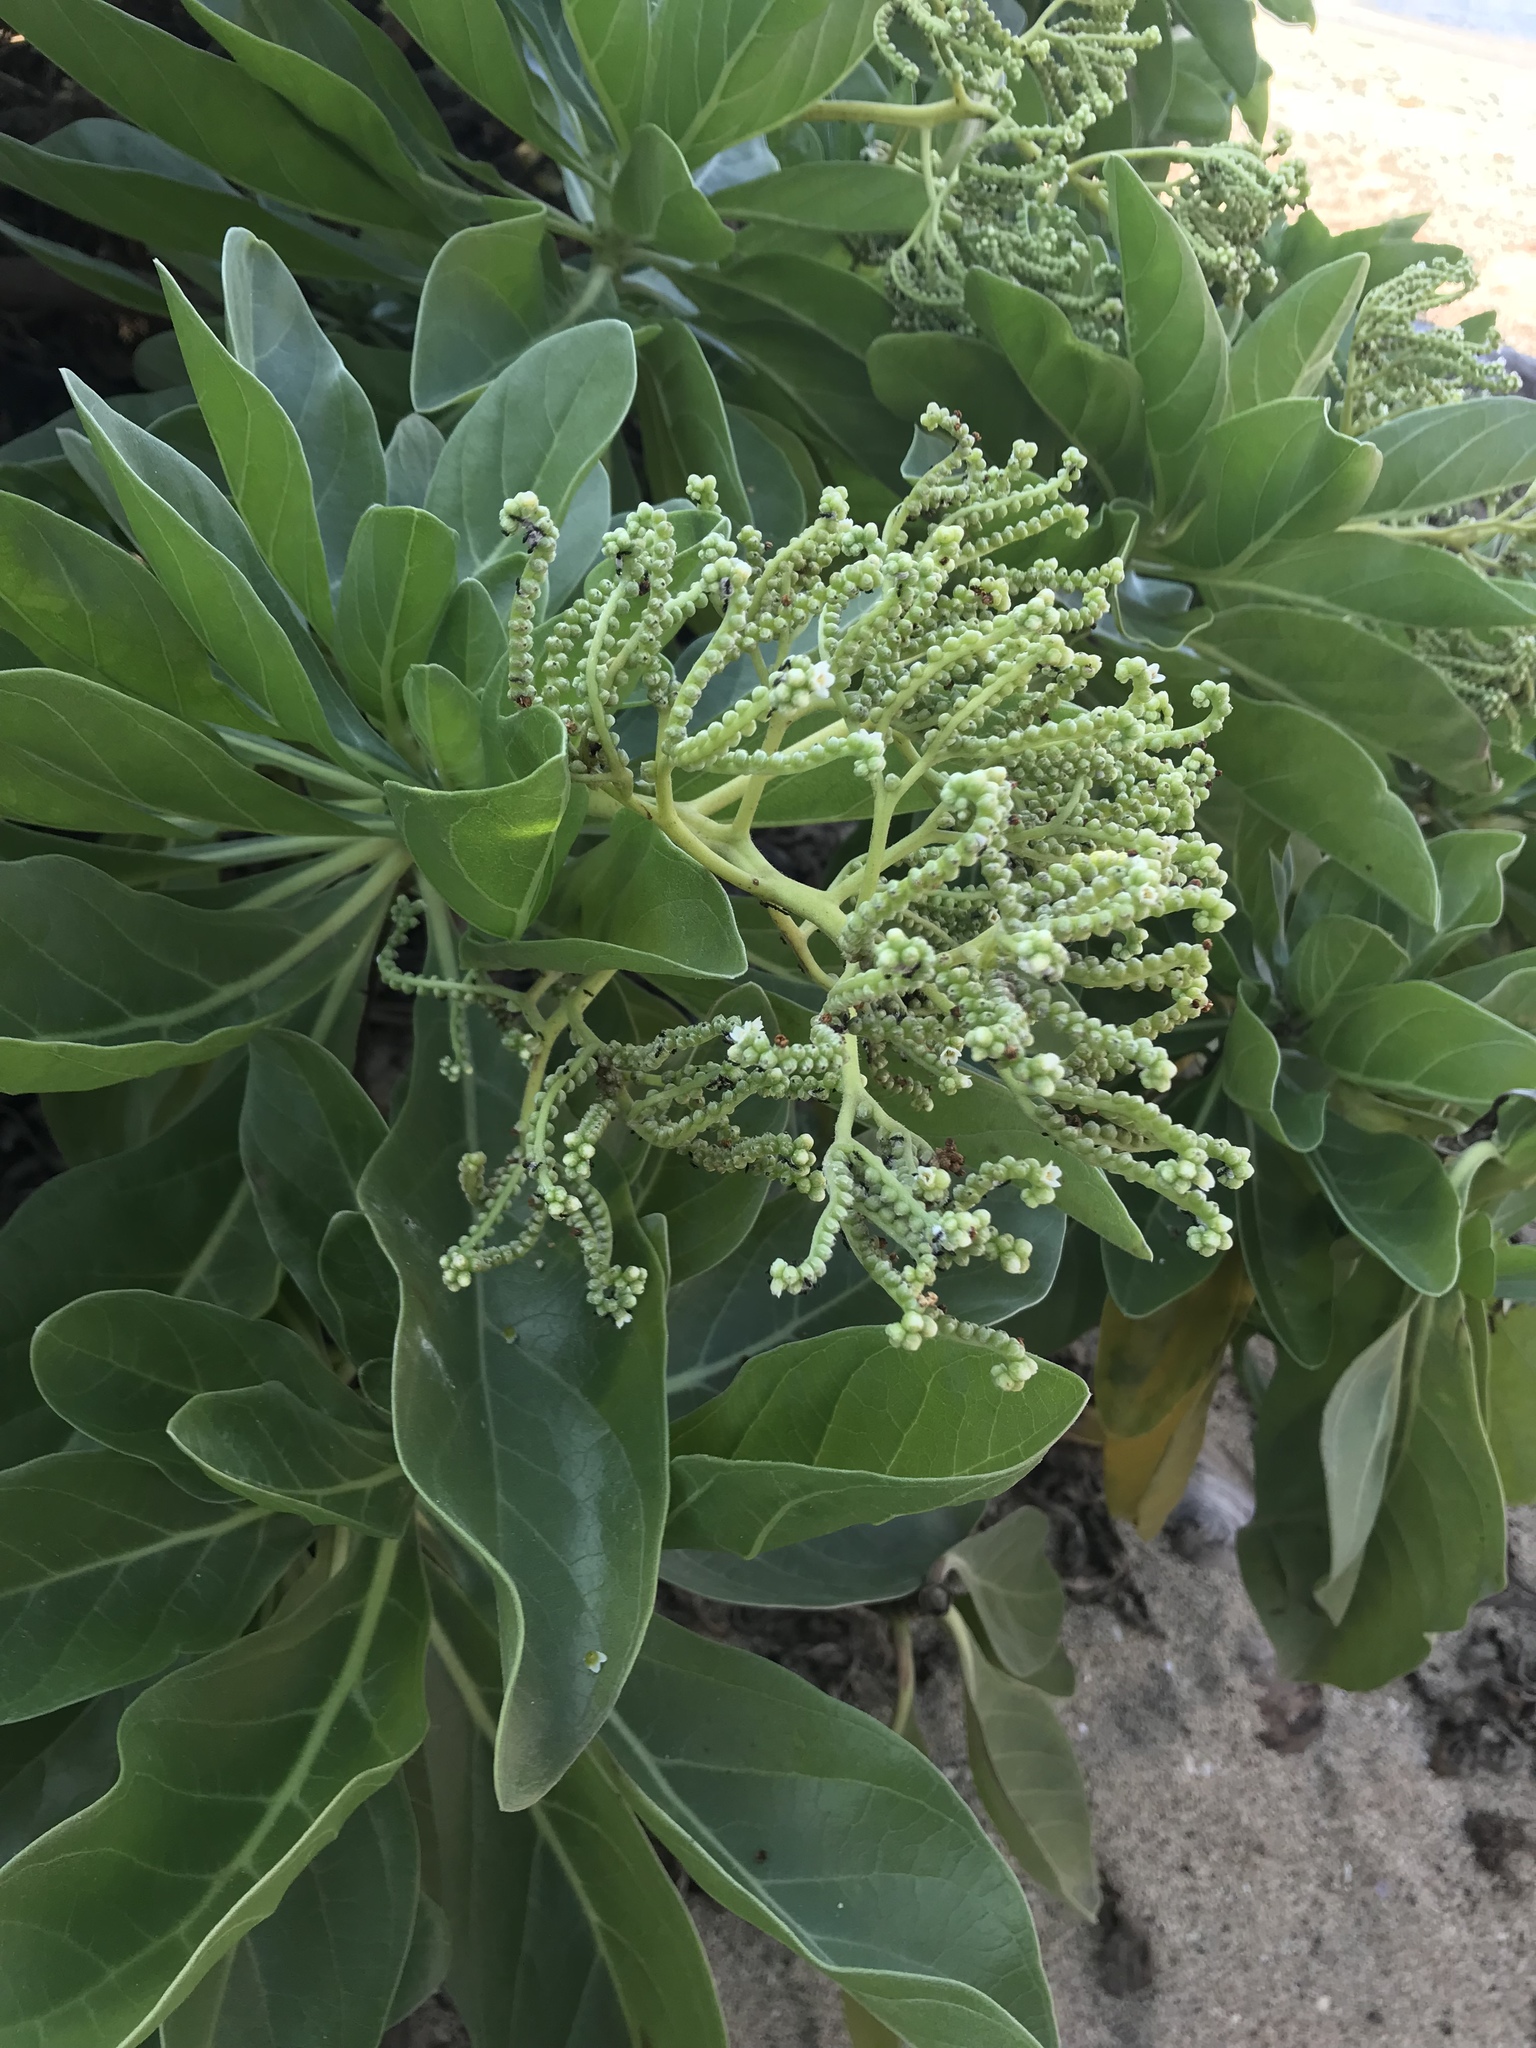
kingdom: Plantae
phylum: Tracheophyta
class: Magnoliopsida
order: Boraginales
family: Heliotropiaceae
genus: Heliotropium
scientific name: Heliotropium velutinum
